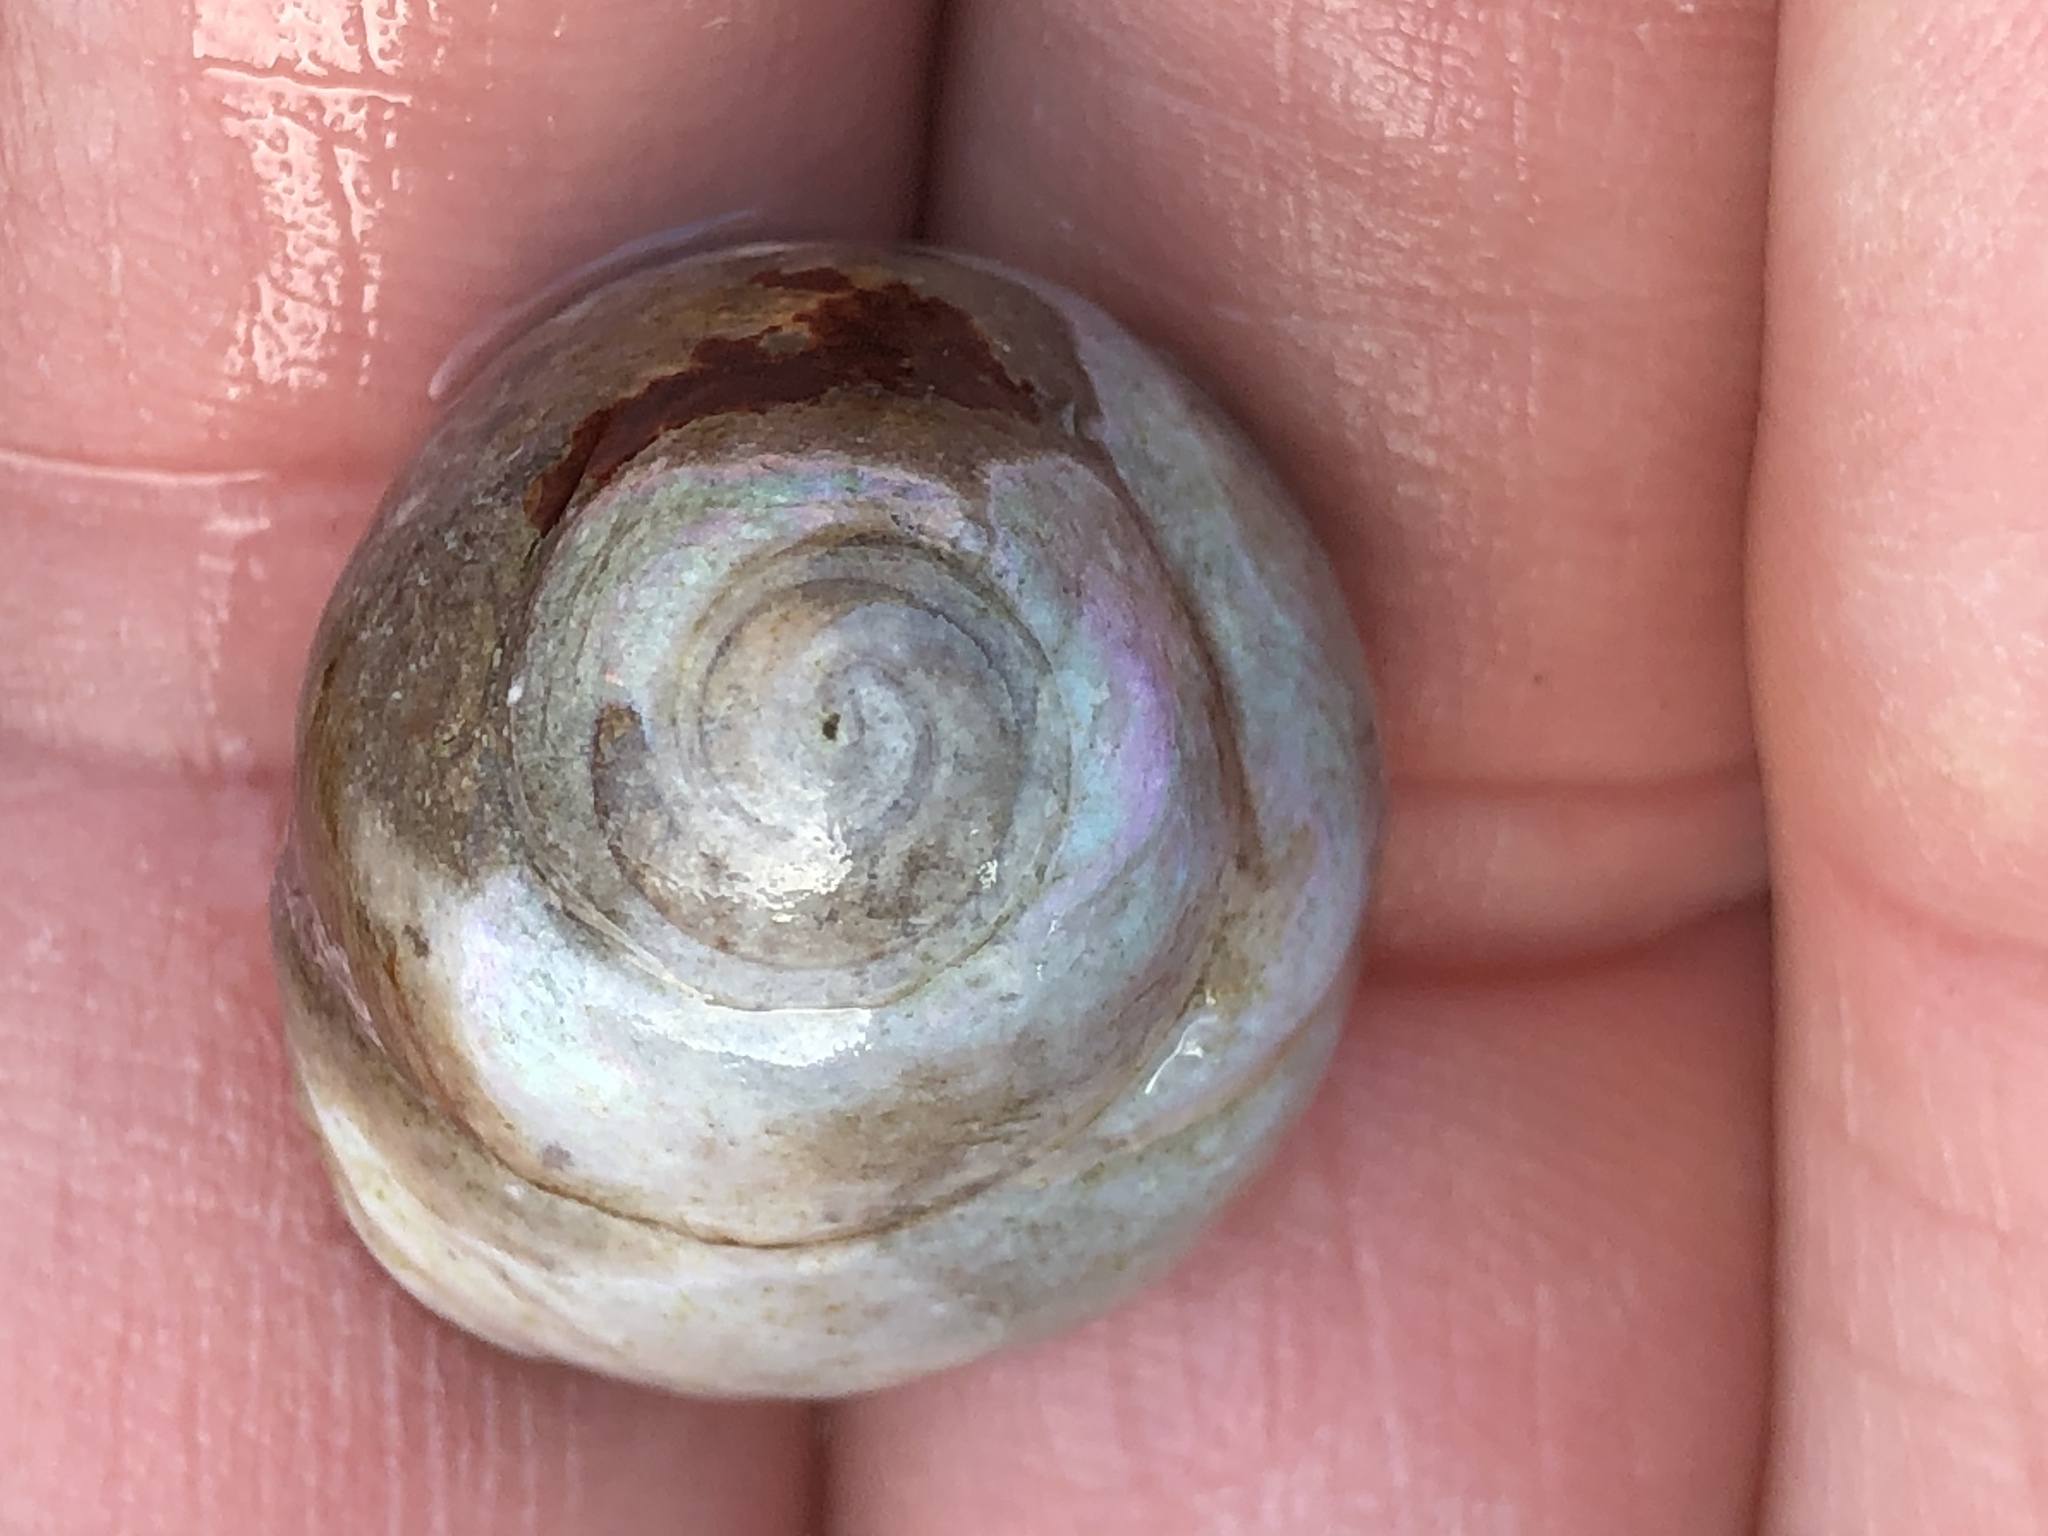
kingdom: Animalia
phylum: Mollusca
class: Gastropoda
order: Trochida
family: Tegulidae
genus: Tegula
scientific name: Tegula brunnea
